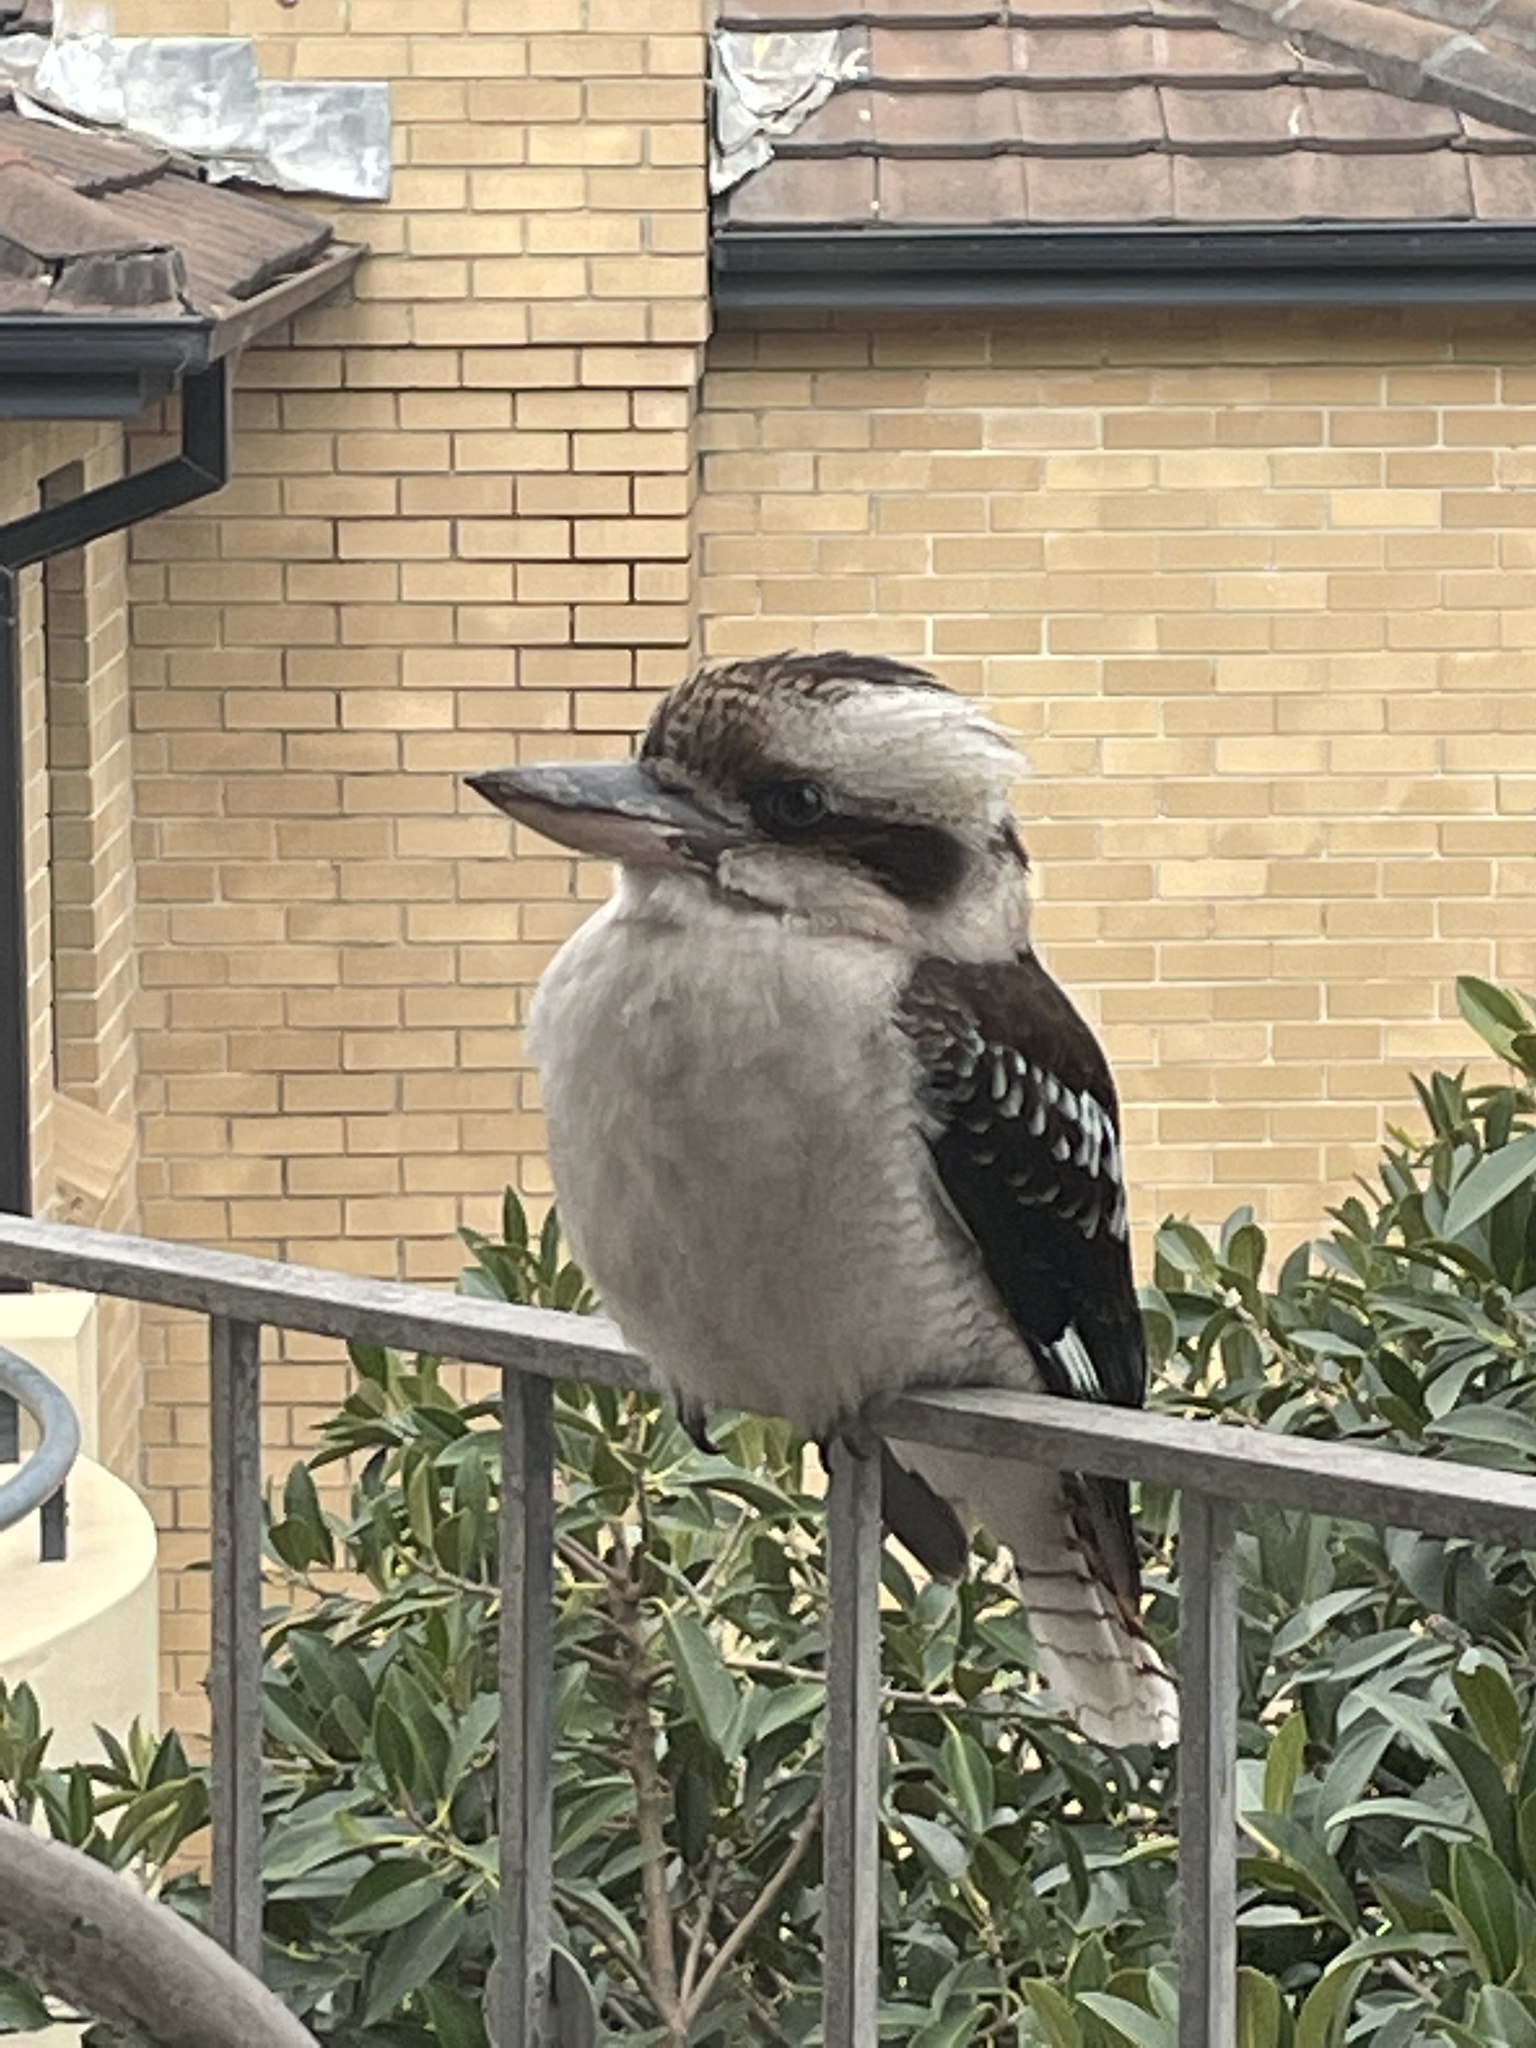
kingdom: Animalia
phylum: Chordata
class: Aves
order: Coraciiformes
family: Alcedinidae
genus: Dacelo
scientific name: Dacelo novaeguineae
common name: Laughing kookaburra
